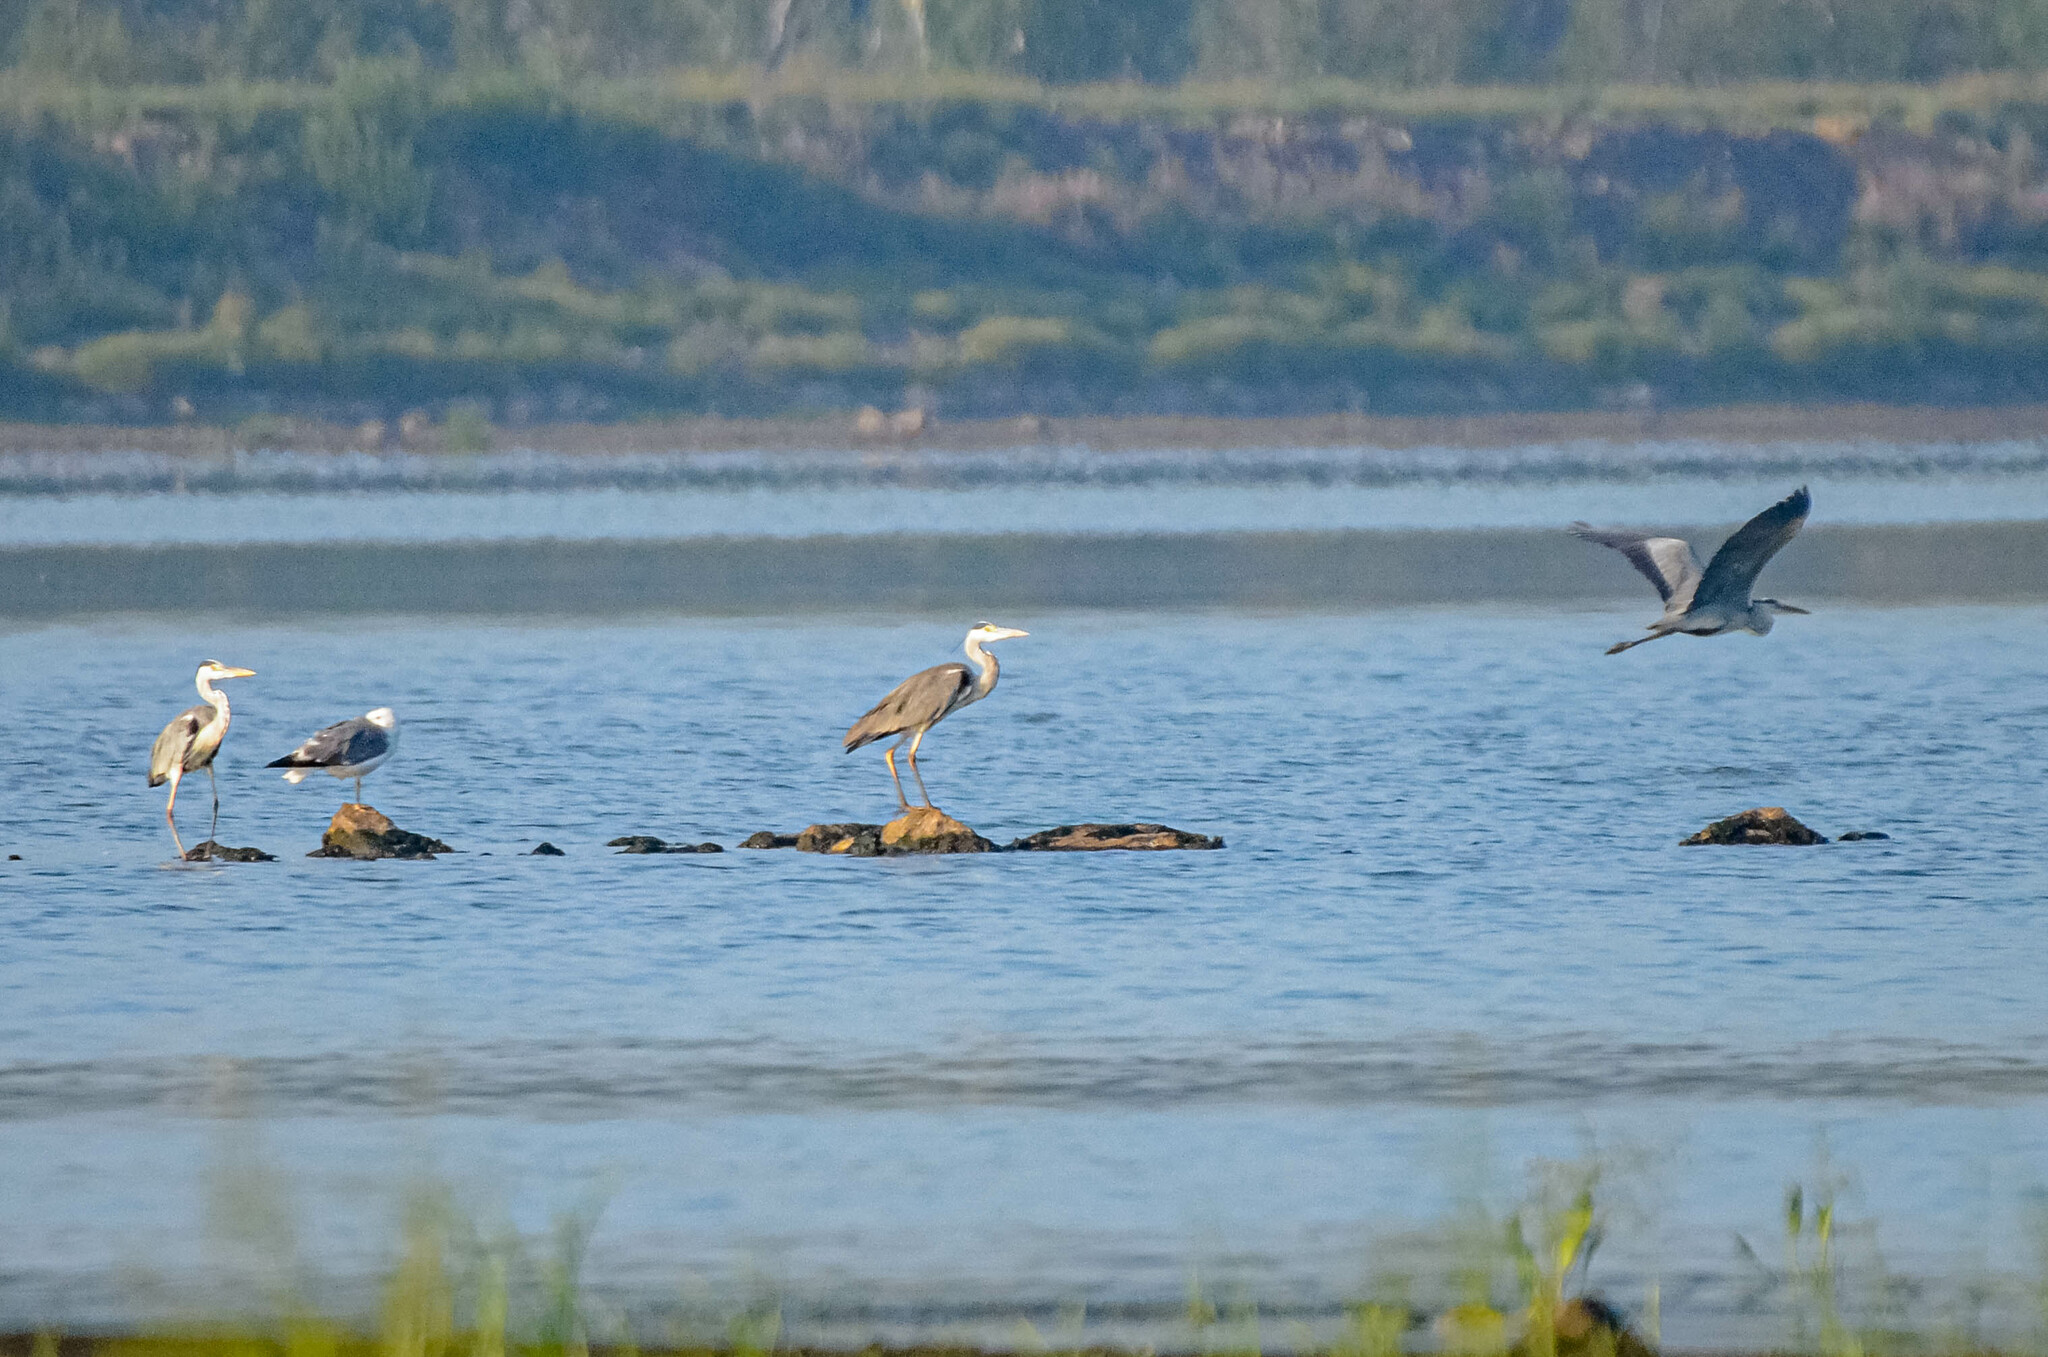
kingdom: Animalia
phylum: Chordata
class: Aves
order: Pelecaniformes
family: Ardeidae
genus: Ardea
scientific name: Ardea cinerea
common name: Grey heron
